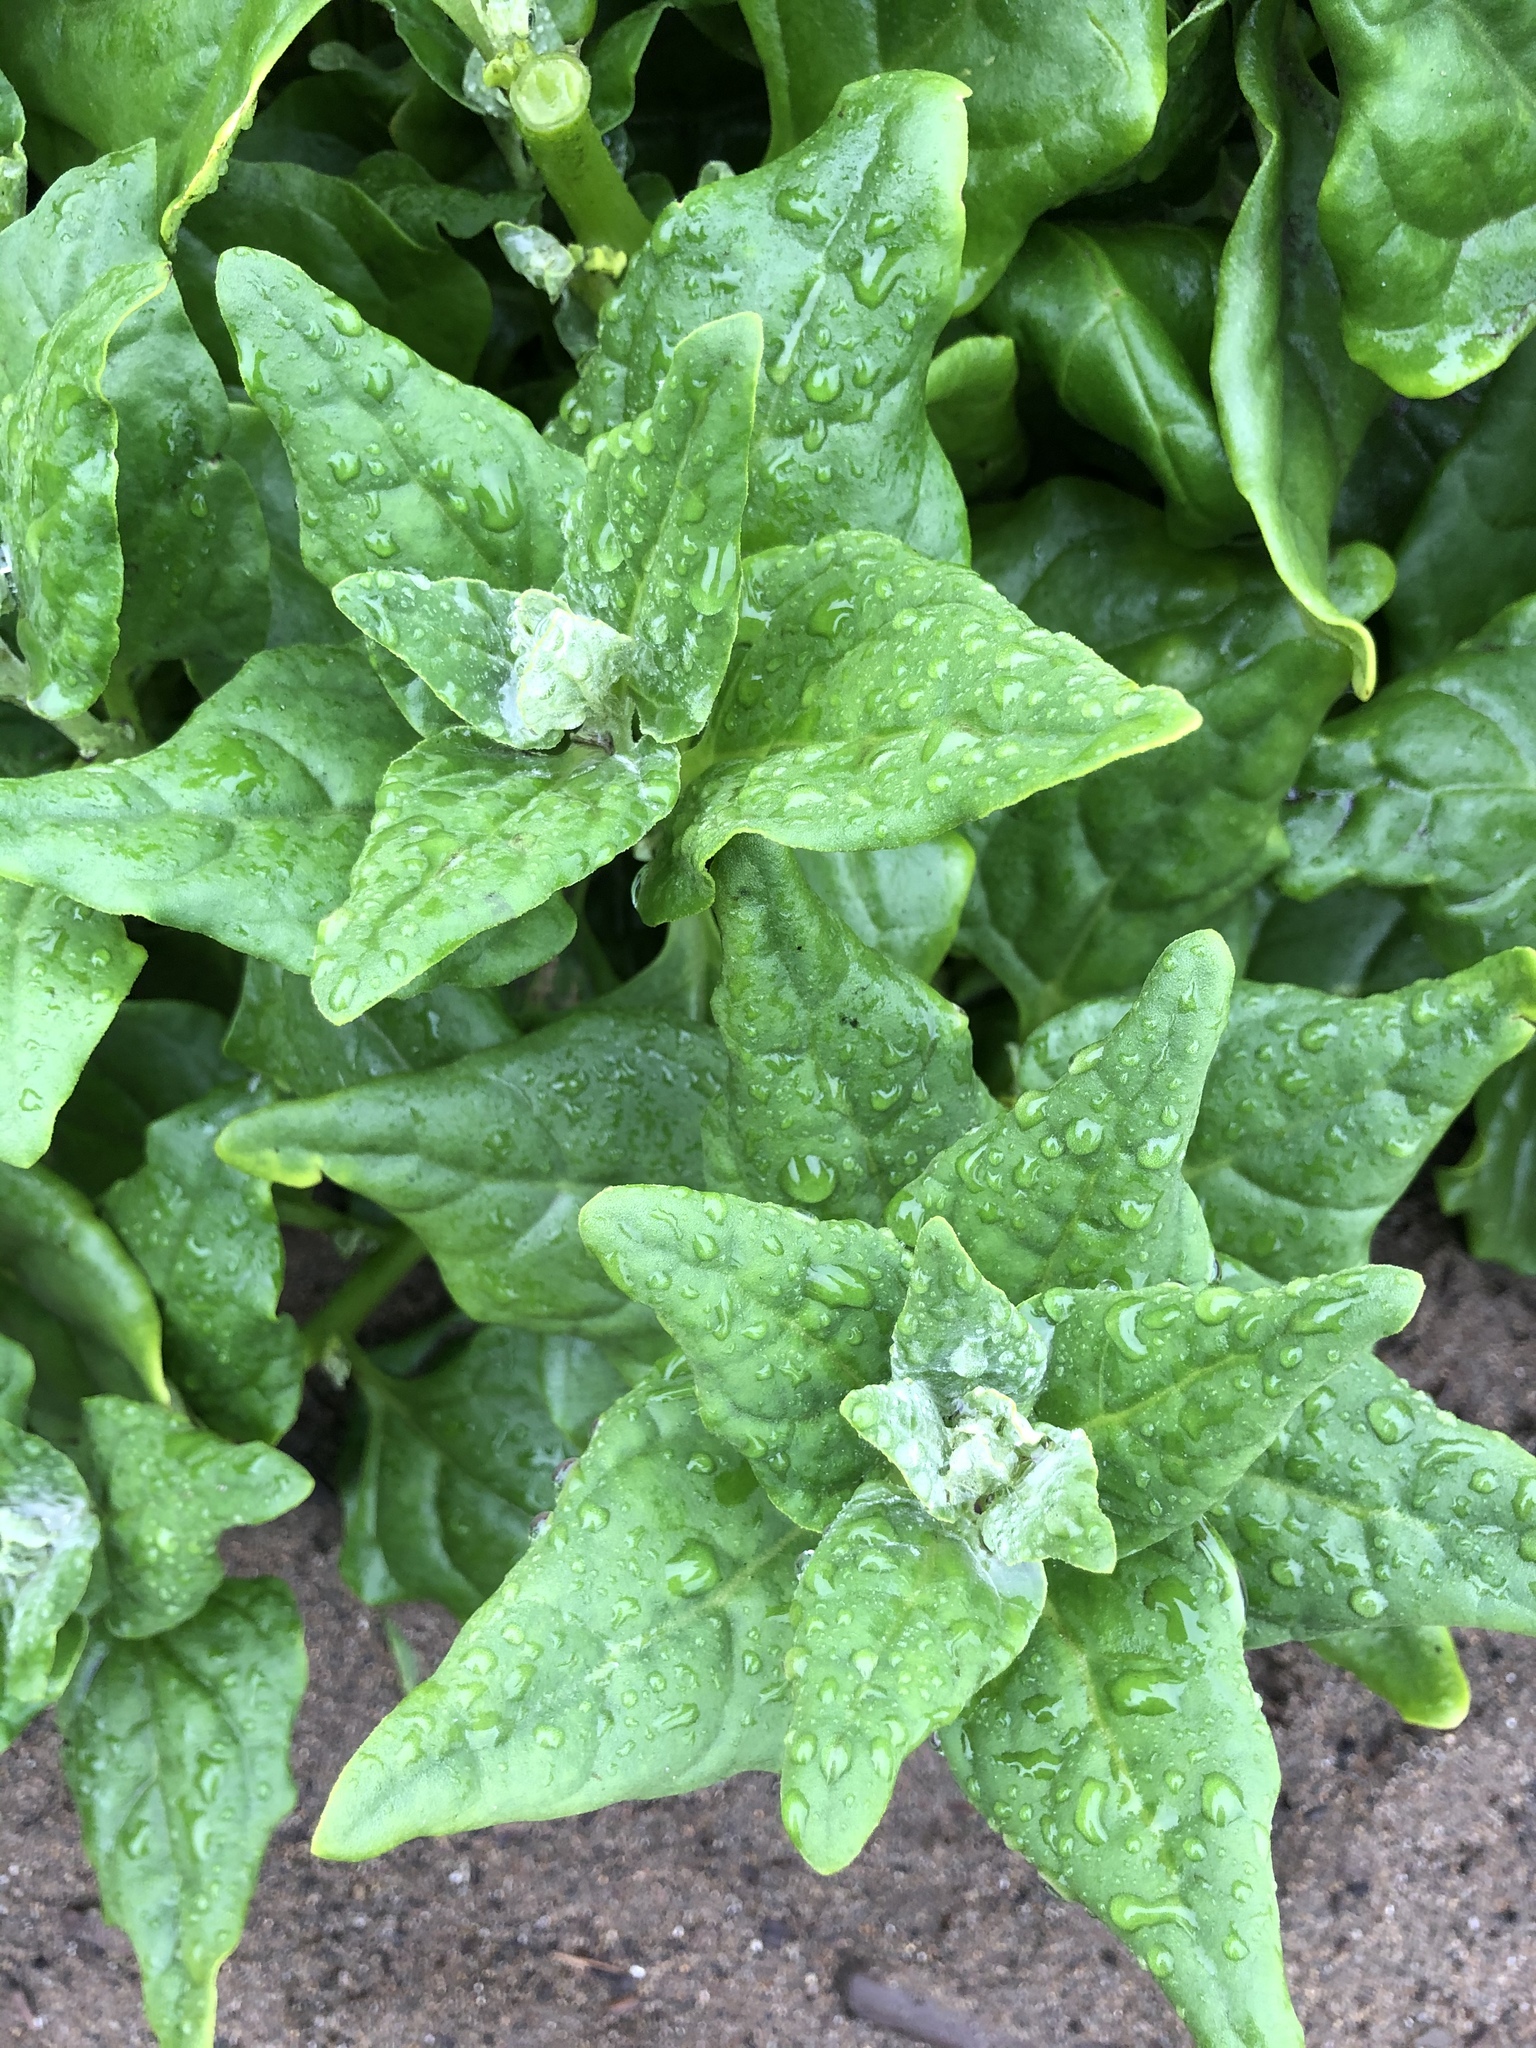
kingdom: Plantae
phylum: Tracheophyta
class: Magnoliopsida
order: Caryophyllales
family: Aizoaceae
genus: Tetragonia
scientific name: Tetragonia tetragonoides
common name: New zealand-spinach
